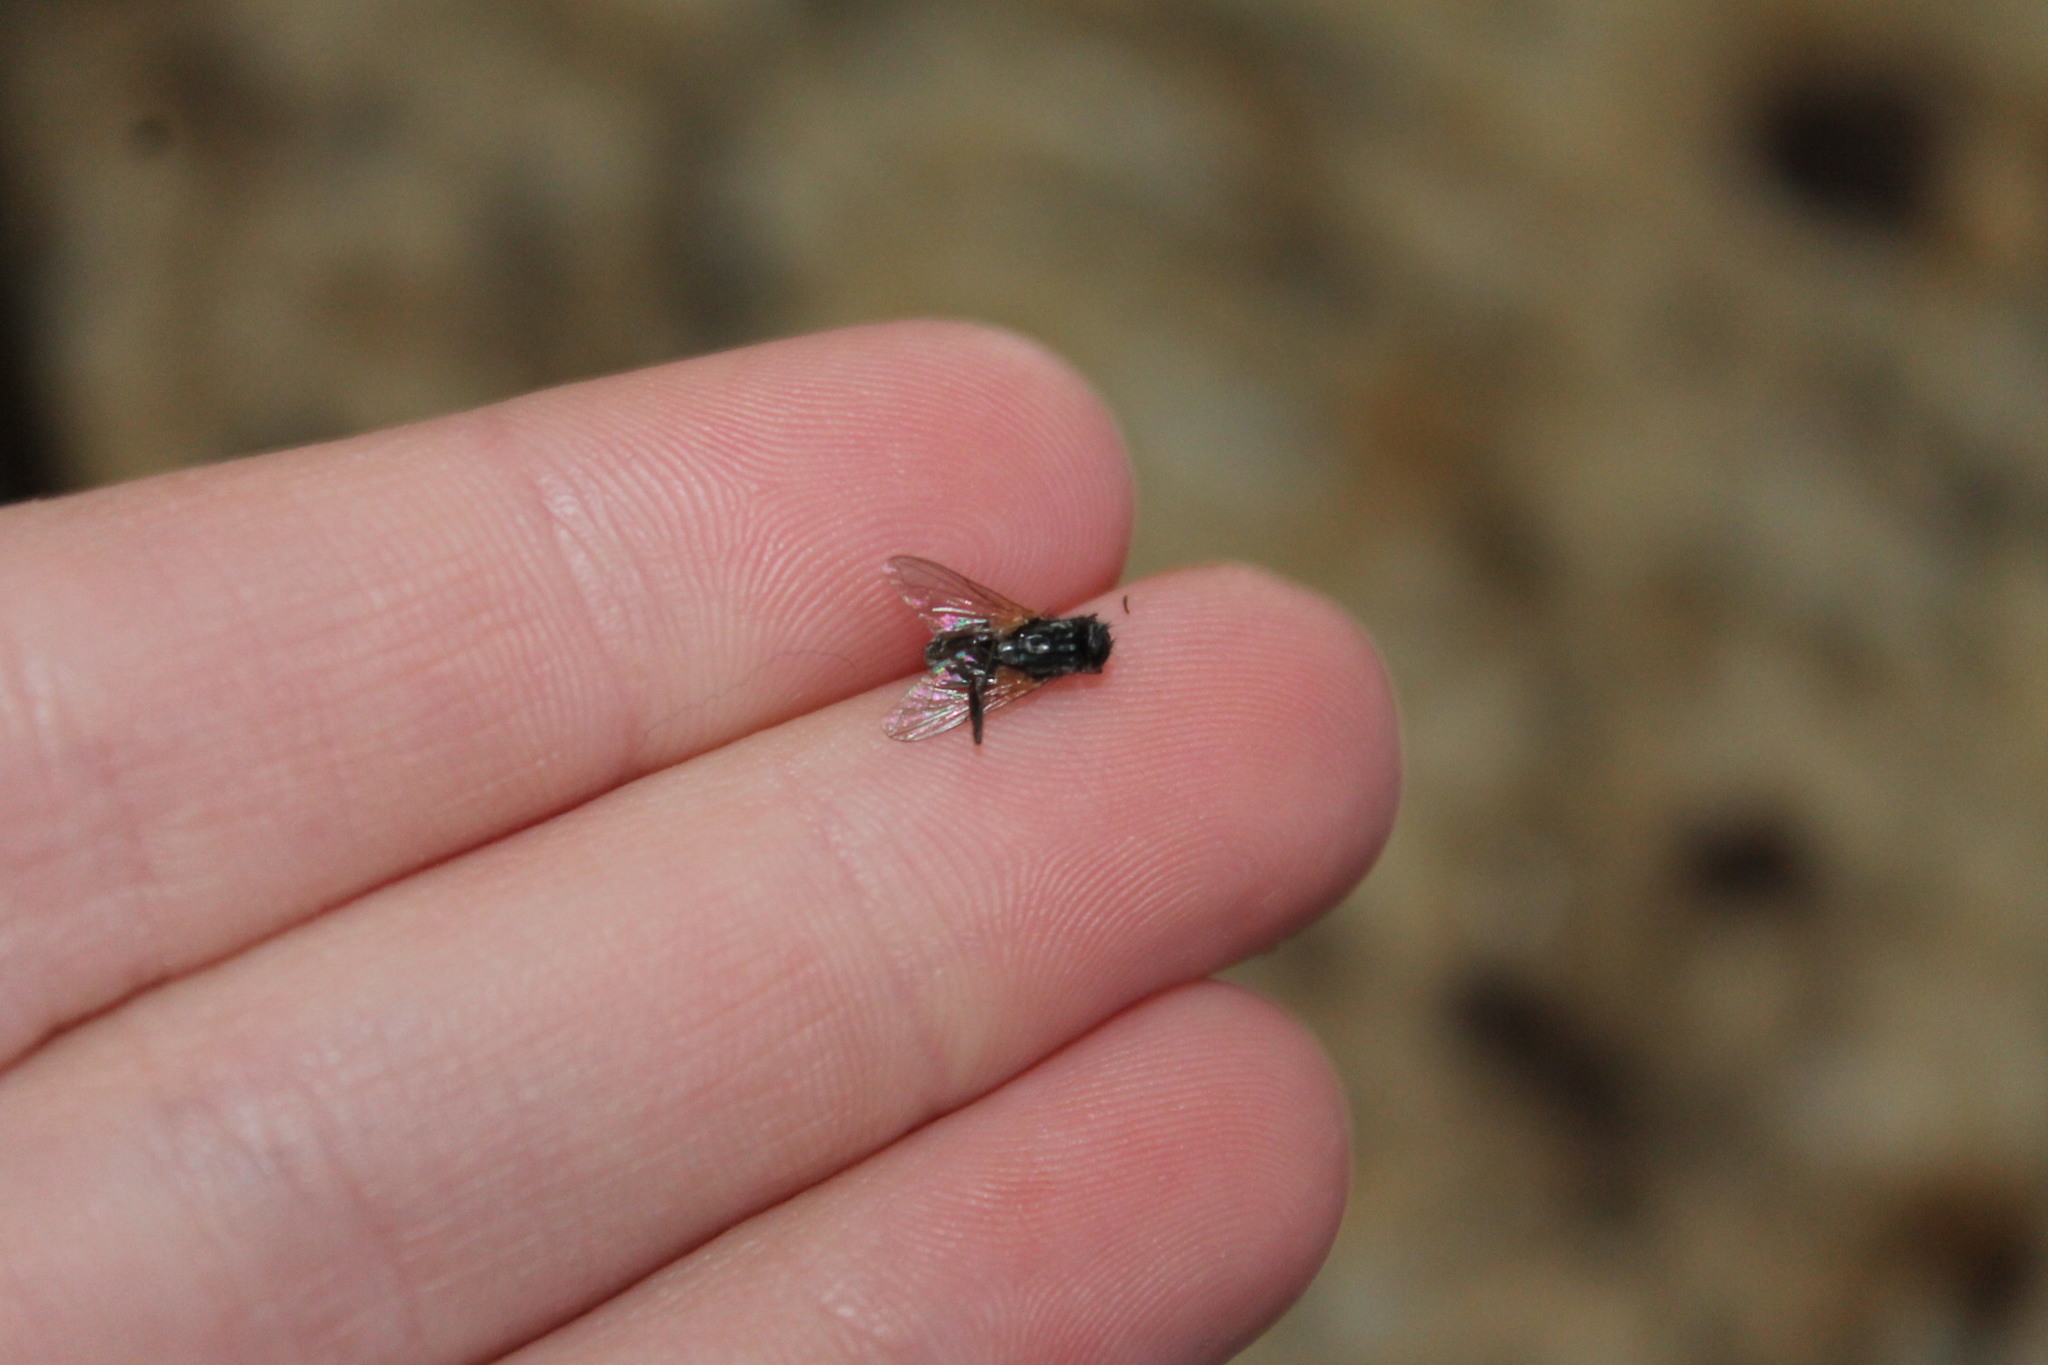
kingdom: Animalia
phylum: Arthropoda
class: Insecta
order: Diptera
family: Muscidae
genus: Musca
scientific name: Musca domestica
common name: House fly
